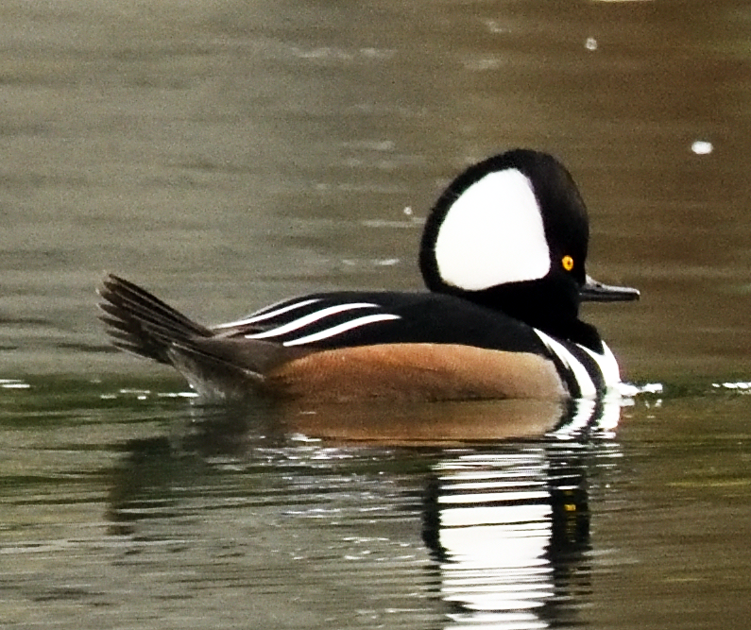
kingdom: Animalia
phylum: Chordata
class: Aves
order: Anseriformes
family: Anatidae
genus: Lophodytes
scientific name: Lophodytes cucullatus
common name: Hooded merganser
